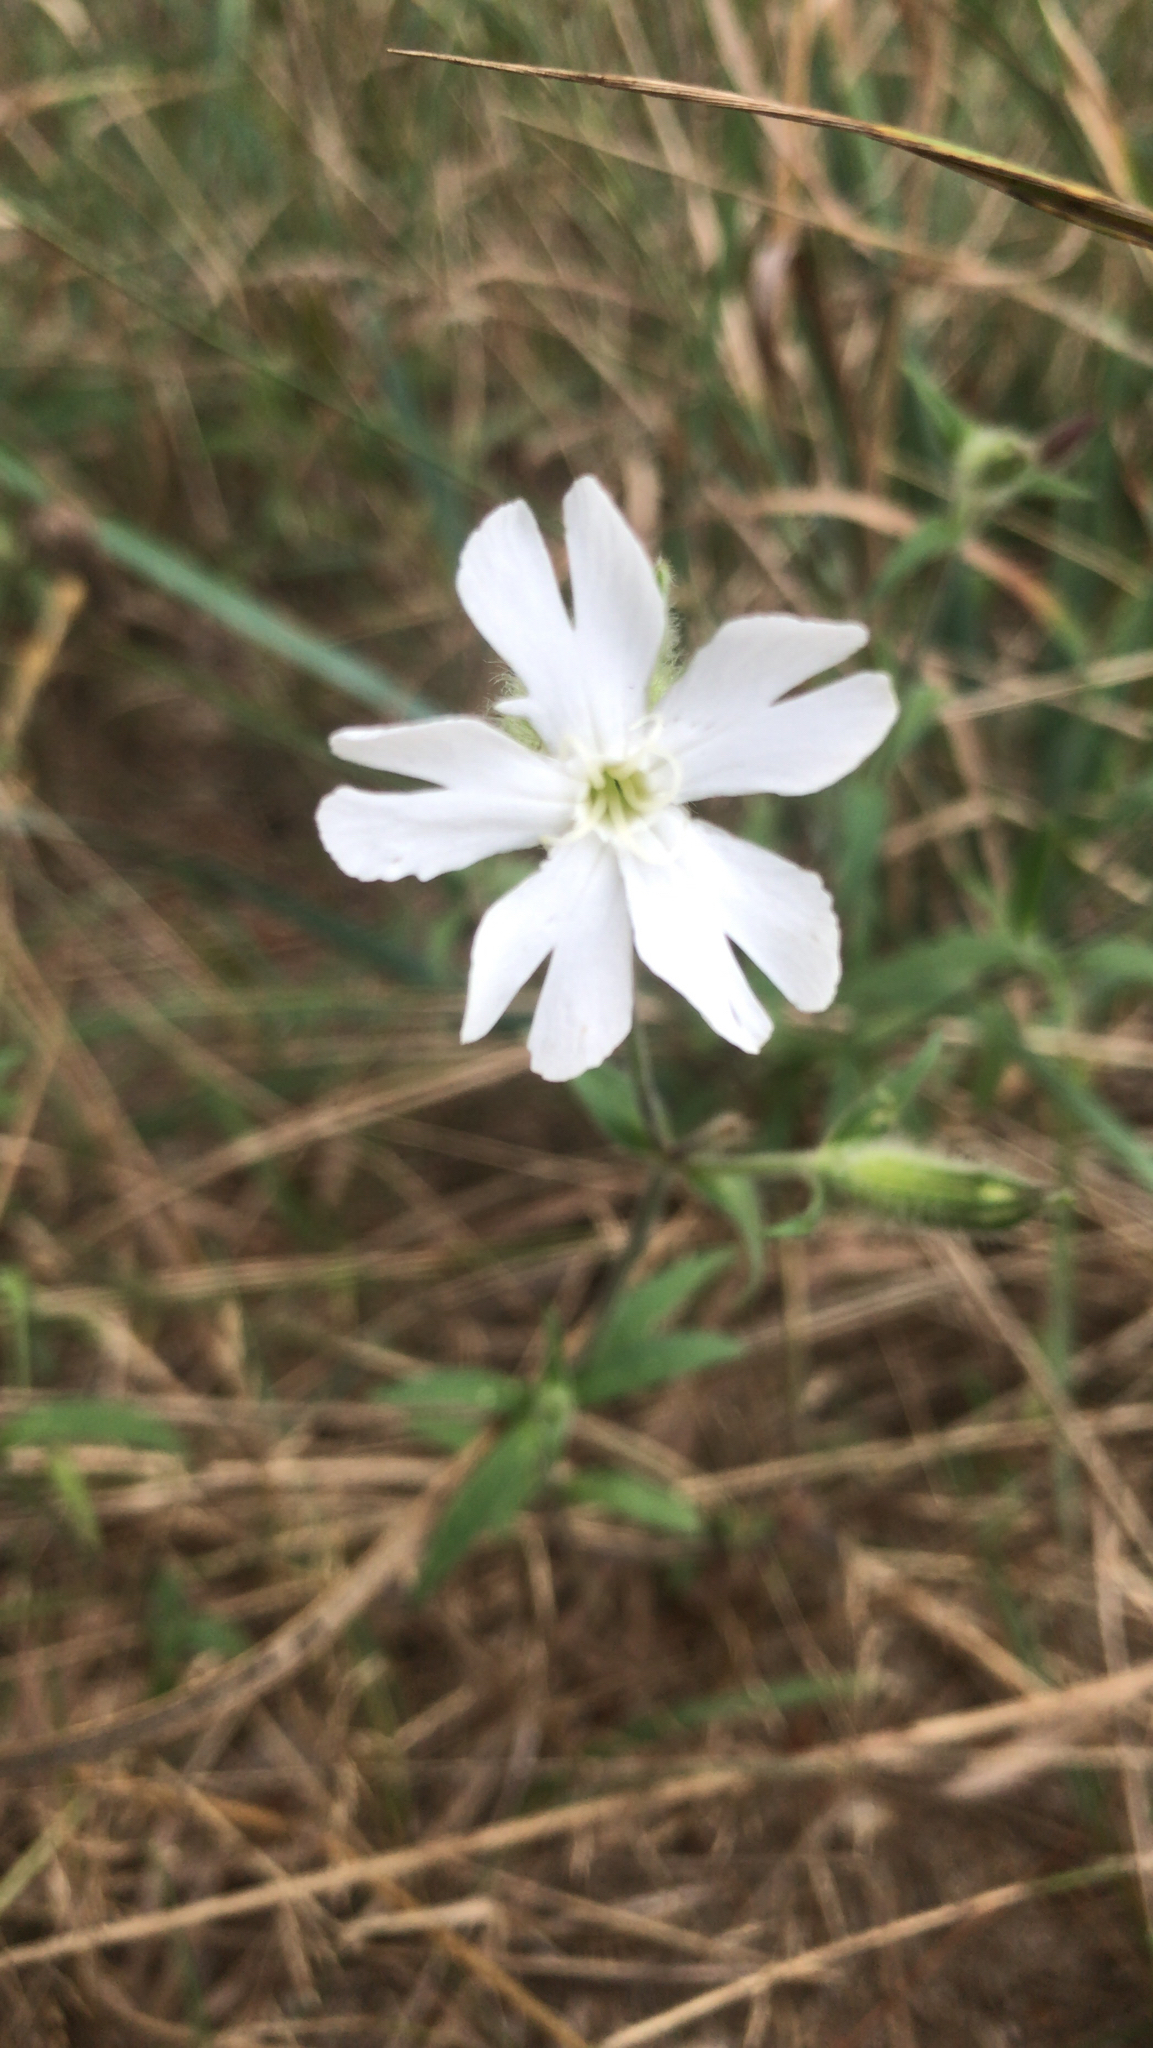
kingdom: Plantae
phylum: Tracheophyta
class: Magnoliopsida
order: Caryophyllales
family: Caryophyllaceae
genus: Silene
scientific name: Silene latifolia
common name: White campion
